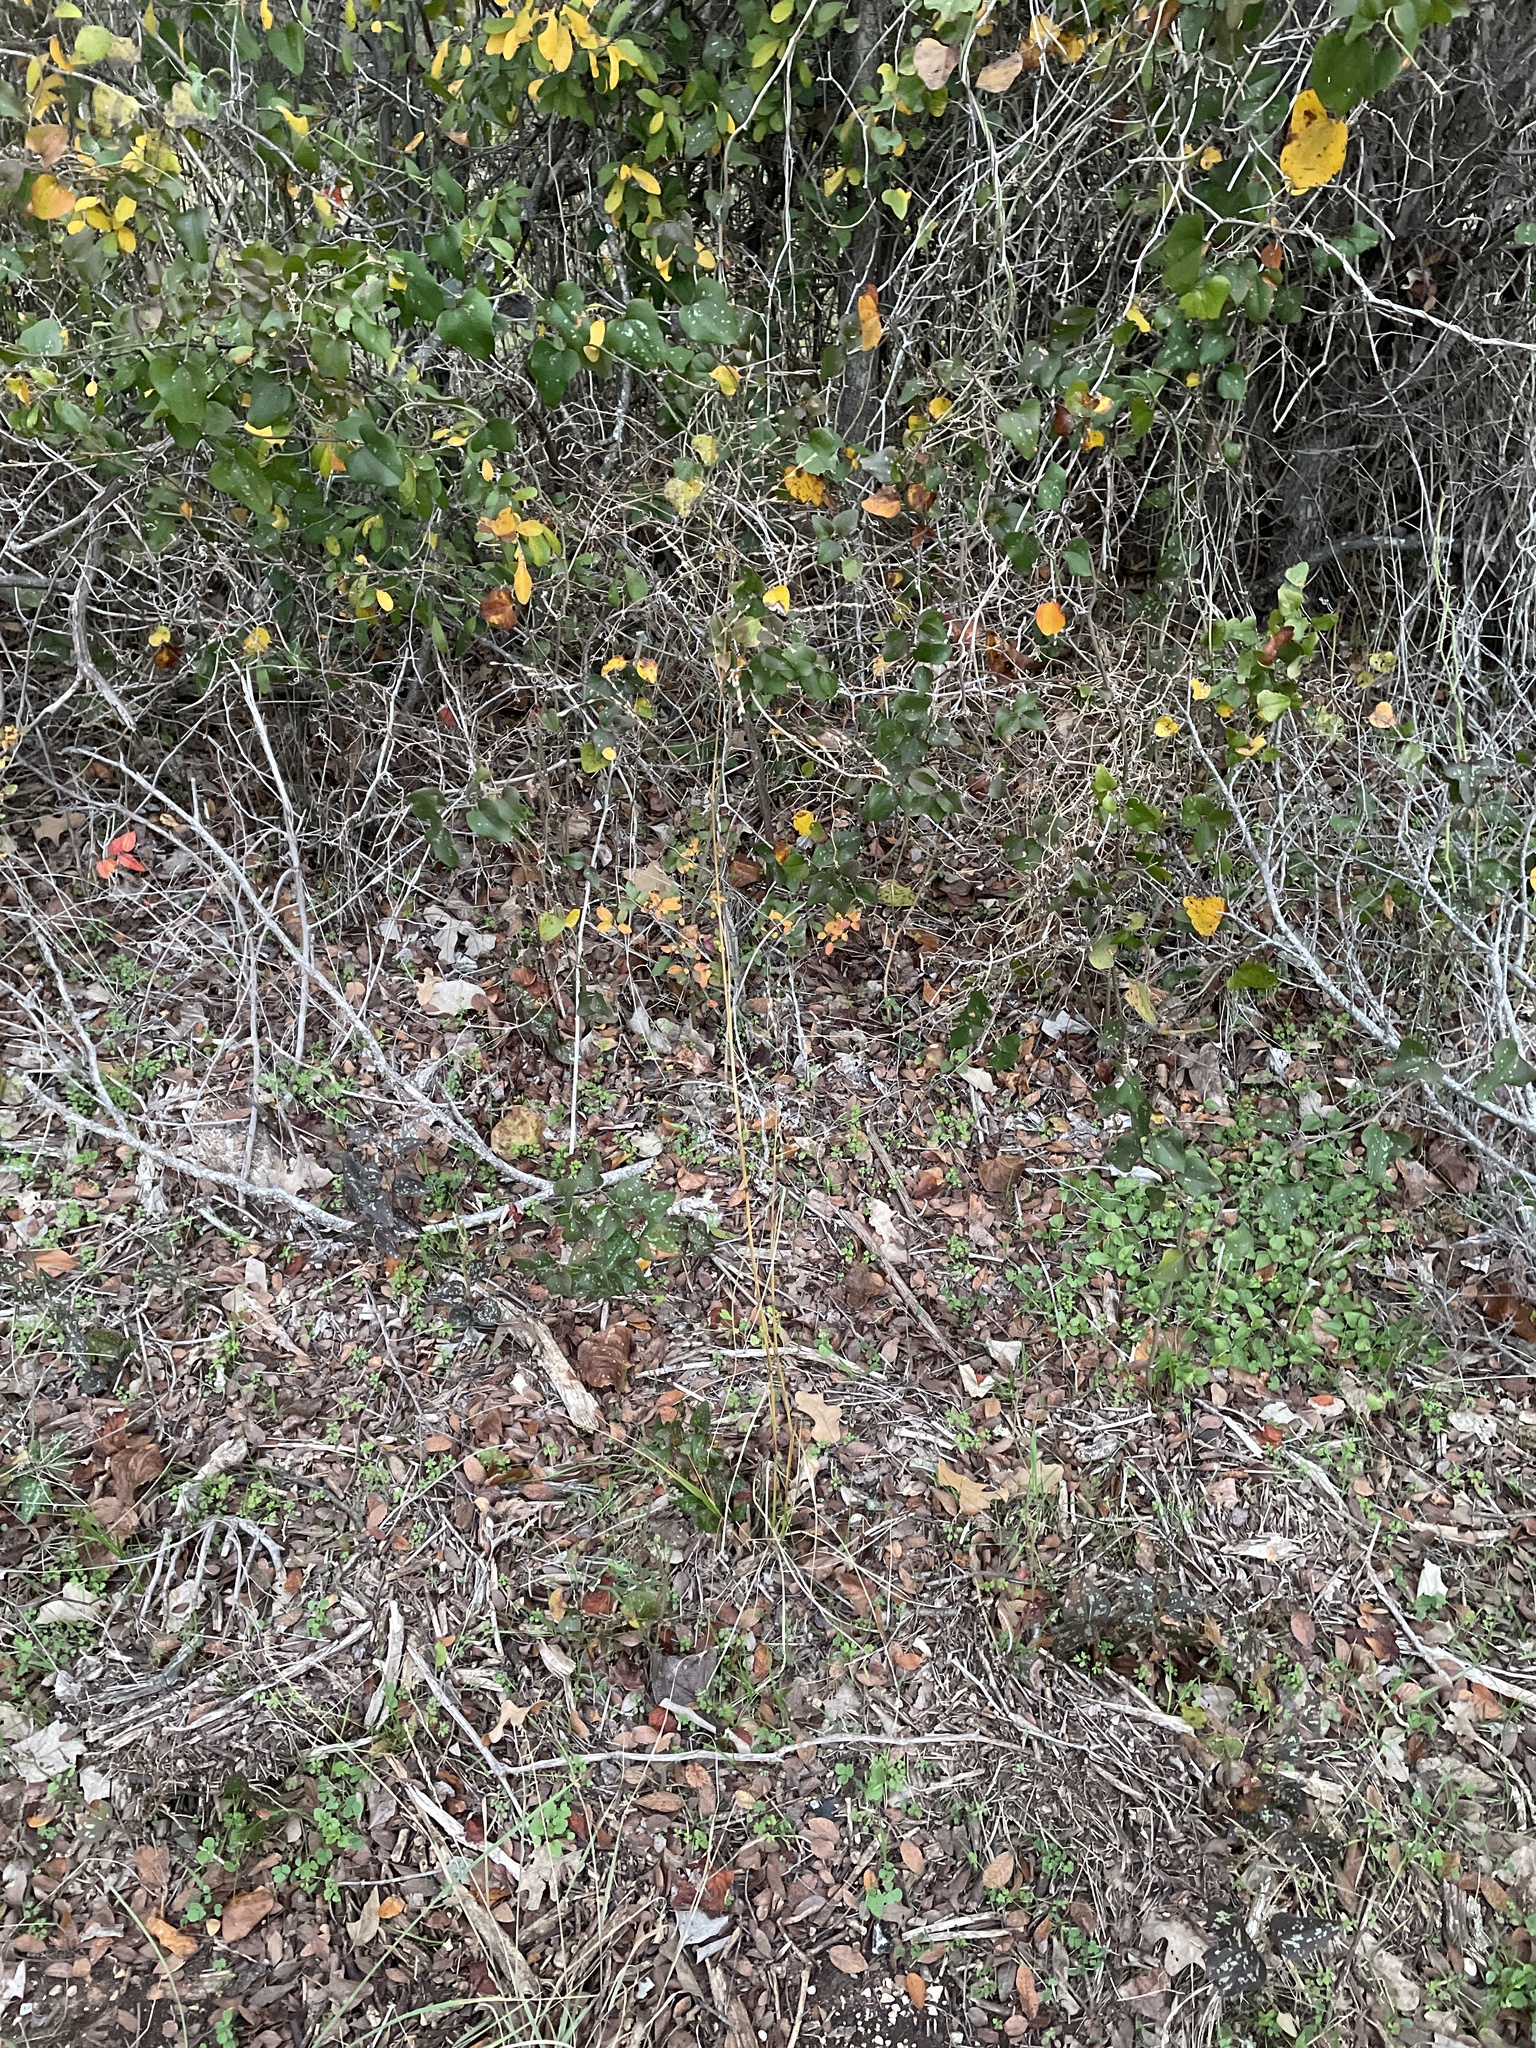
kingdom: Plantae
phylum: Tracheophyta
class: Liliopsida
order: Poales
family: Poaceae
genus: Tridens
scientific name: Tridens flavus
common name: Purpletop
